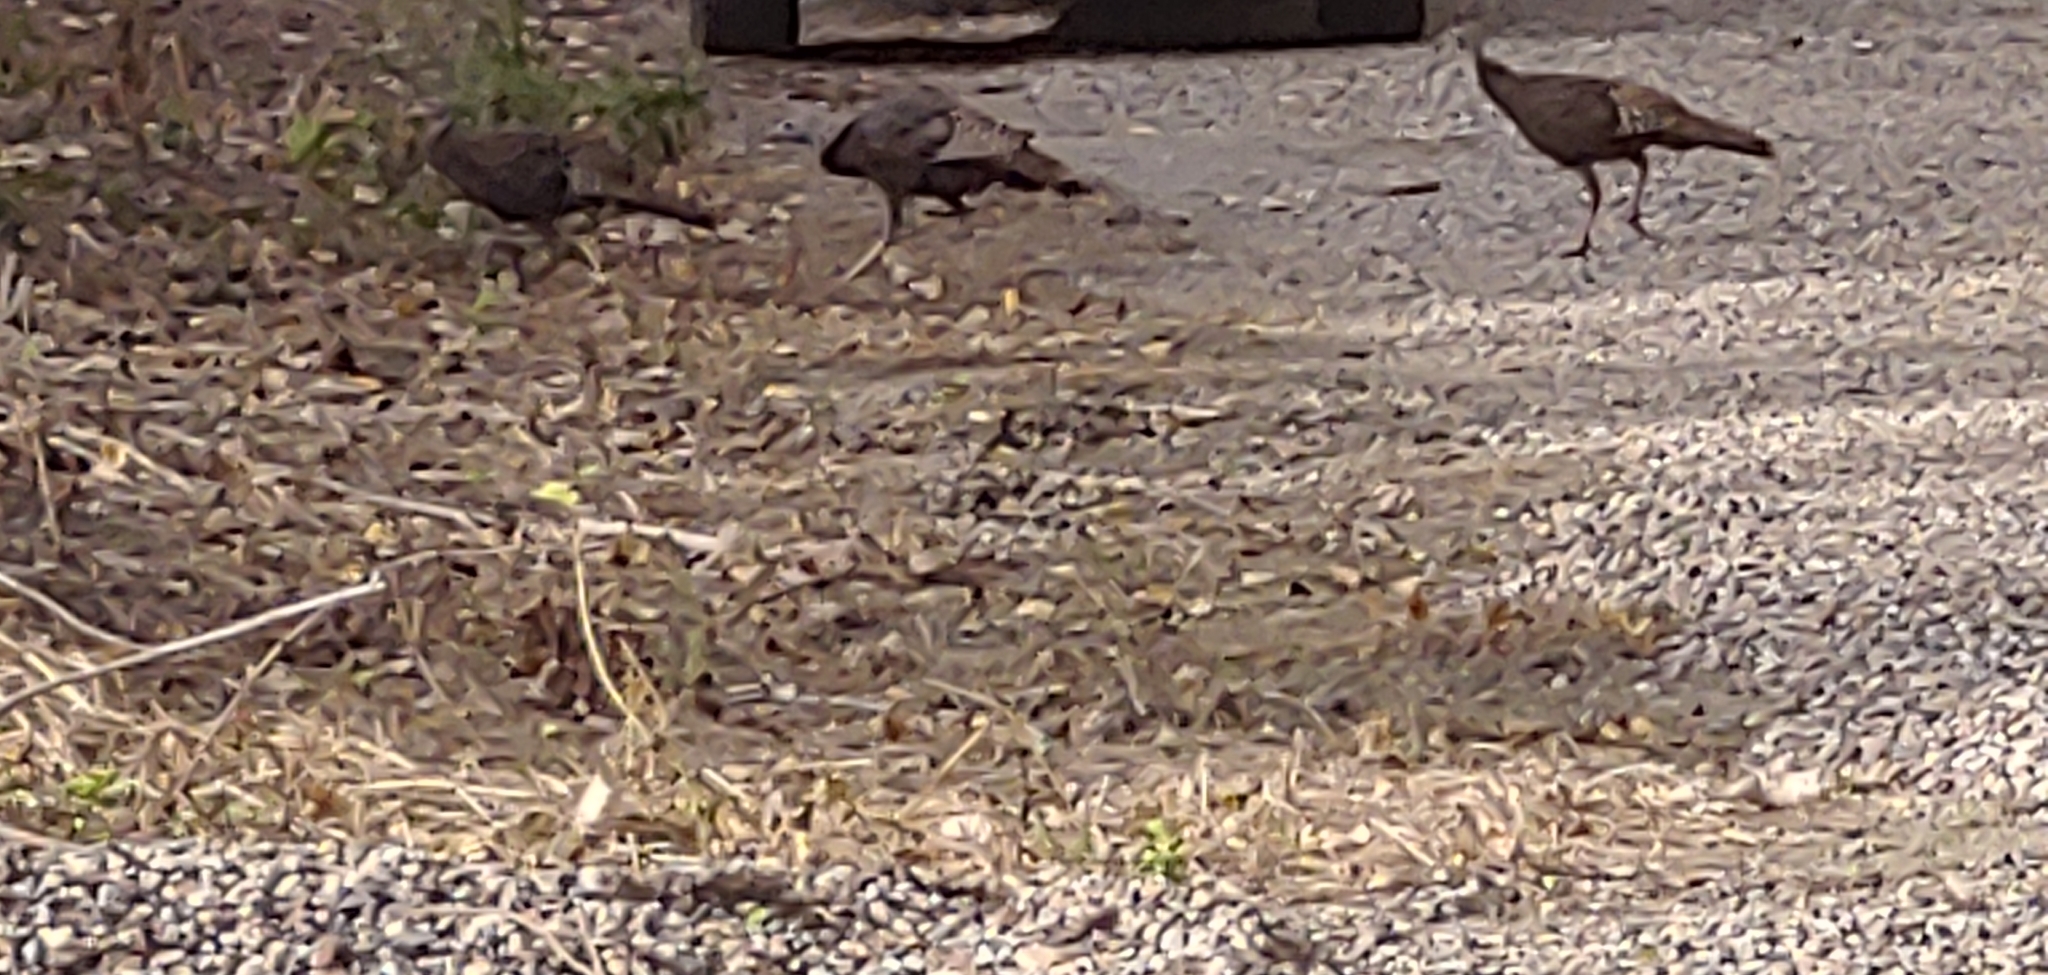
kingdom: Animalia
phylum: Chordata
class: Aves
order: Galliformes
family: Phasianidae
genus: Meleagris
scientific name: Meleagris gallopavo
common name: Wild turkey
